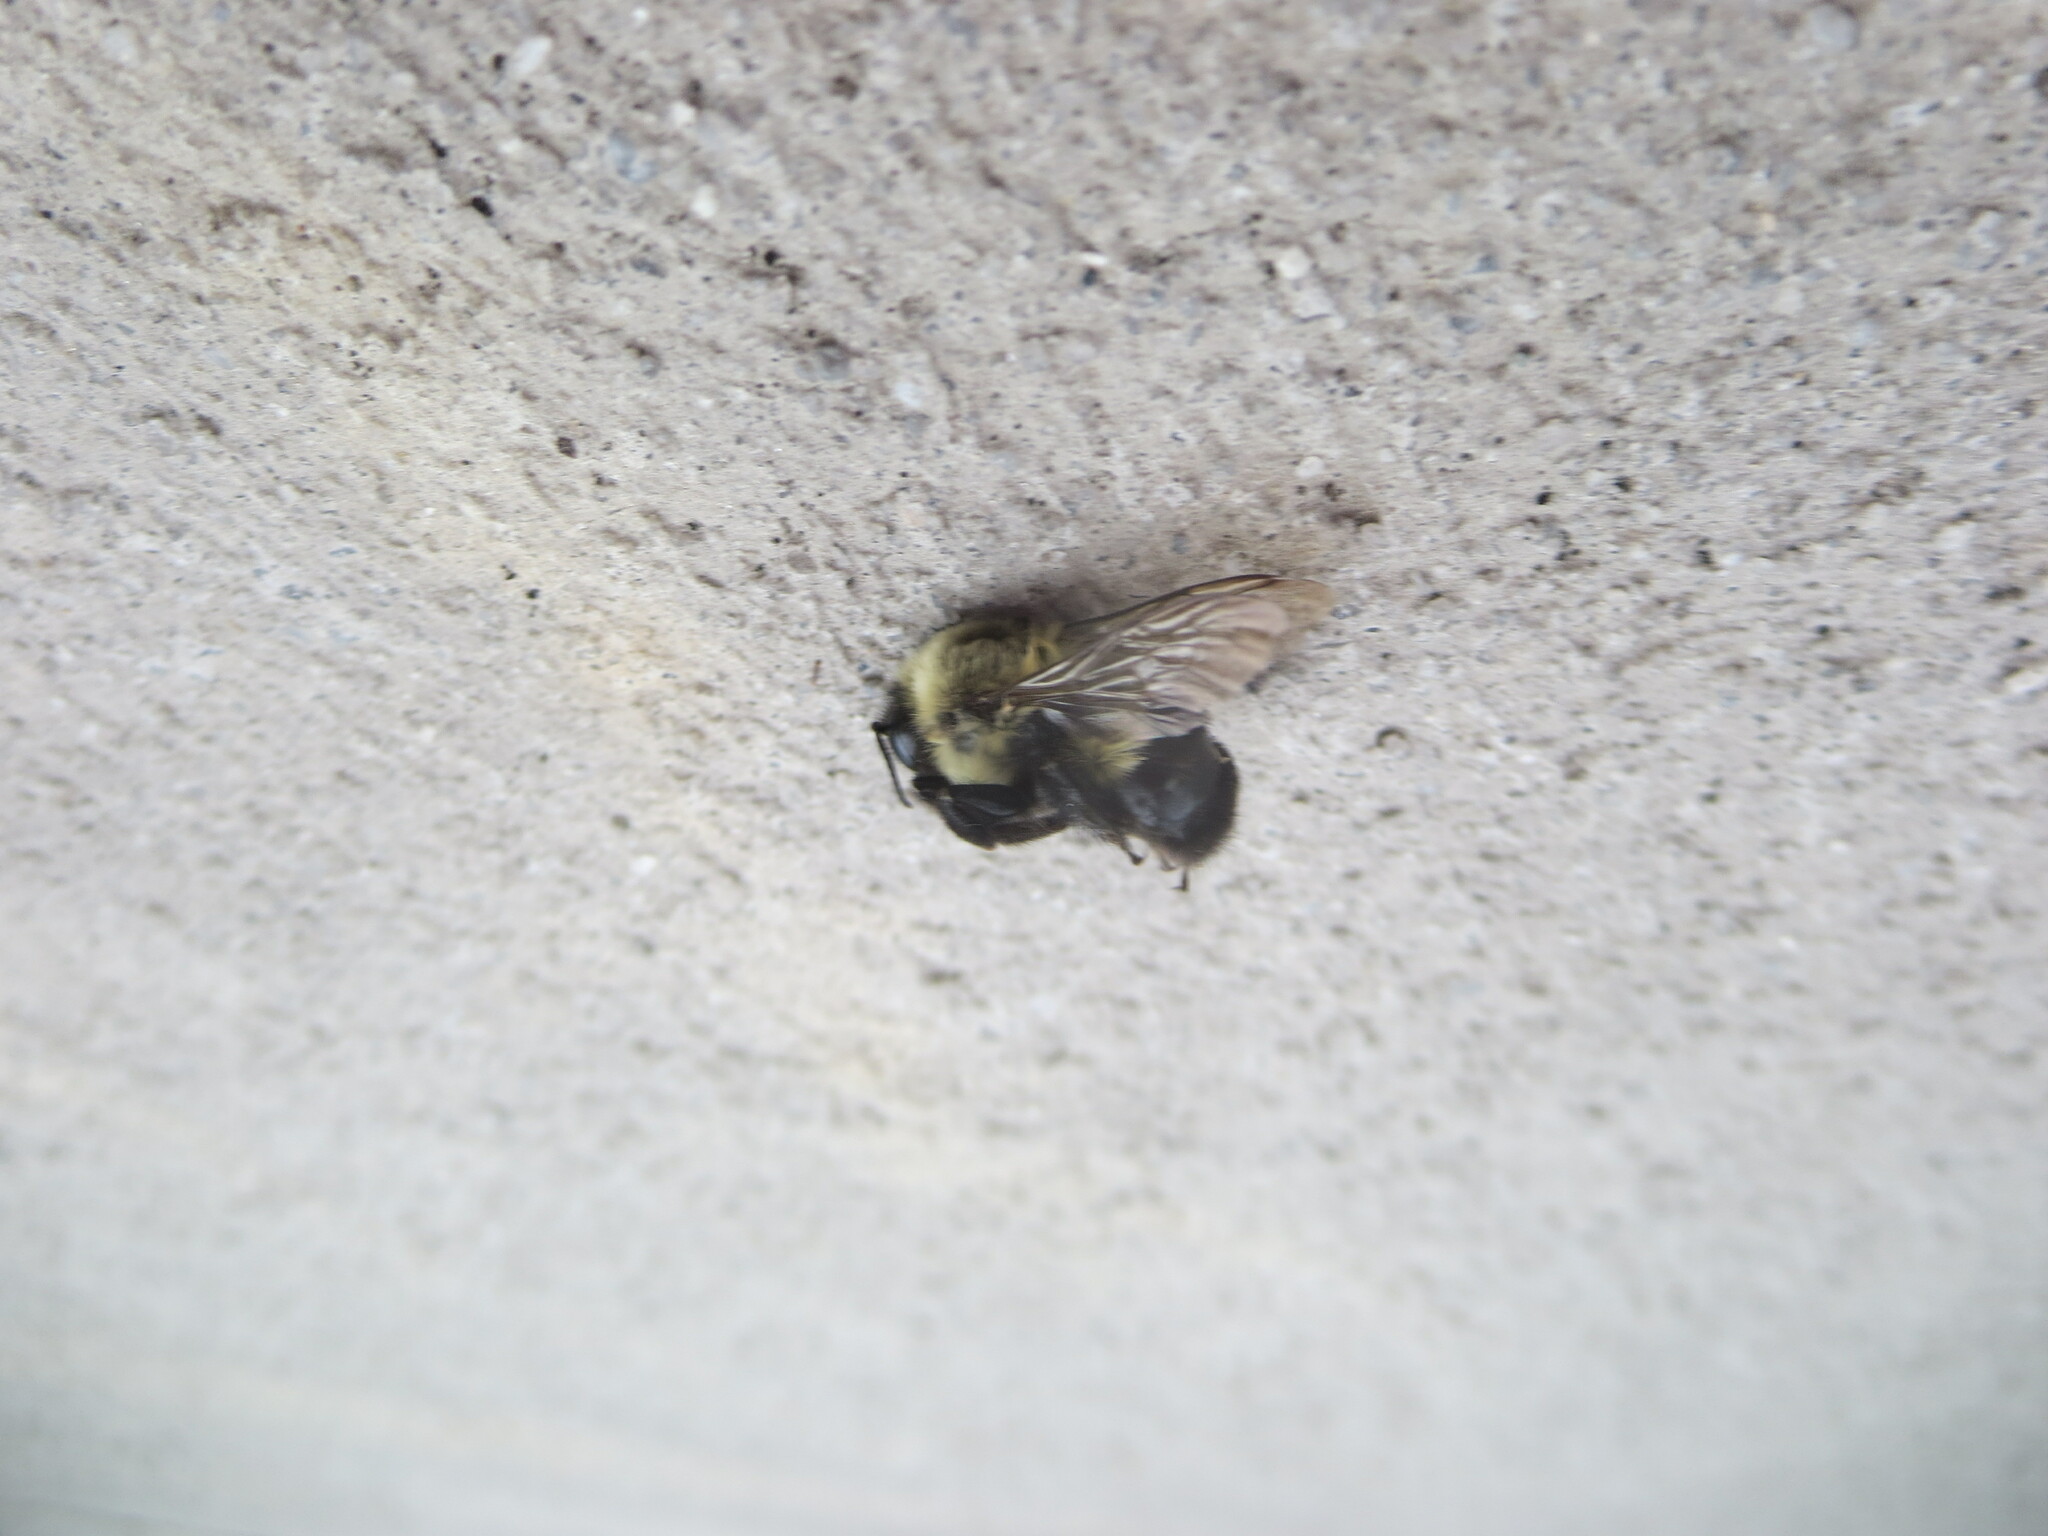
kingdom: Animalia
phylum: Arthropoda
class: Insecta
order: Hymenoptera
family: Apidae
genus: Bombus
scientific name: Bombus impatiens
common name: Common eastern bumble bee
